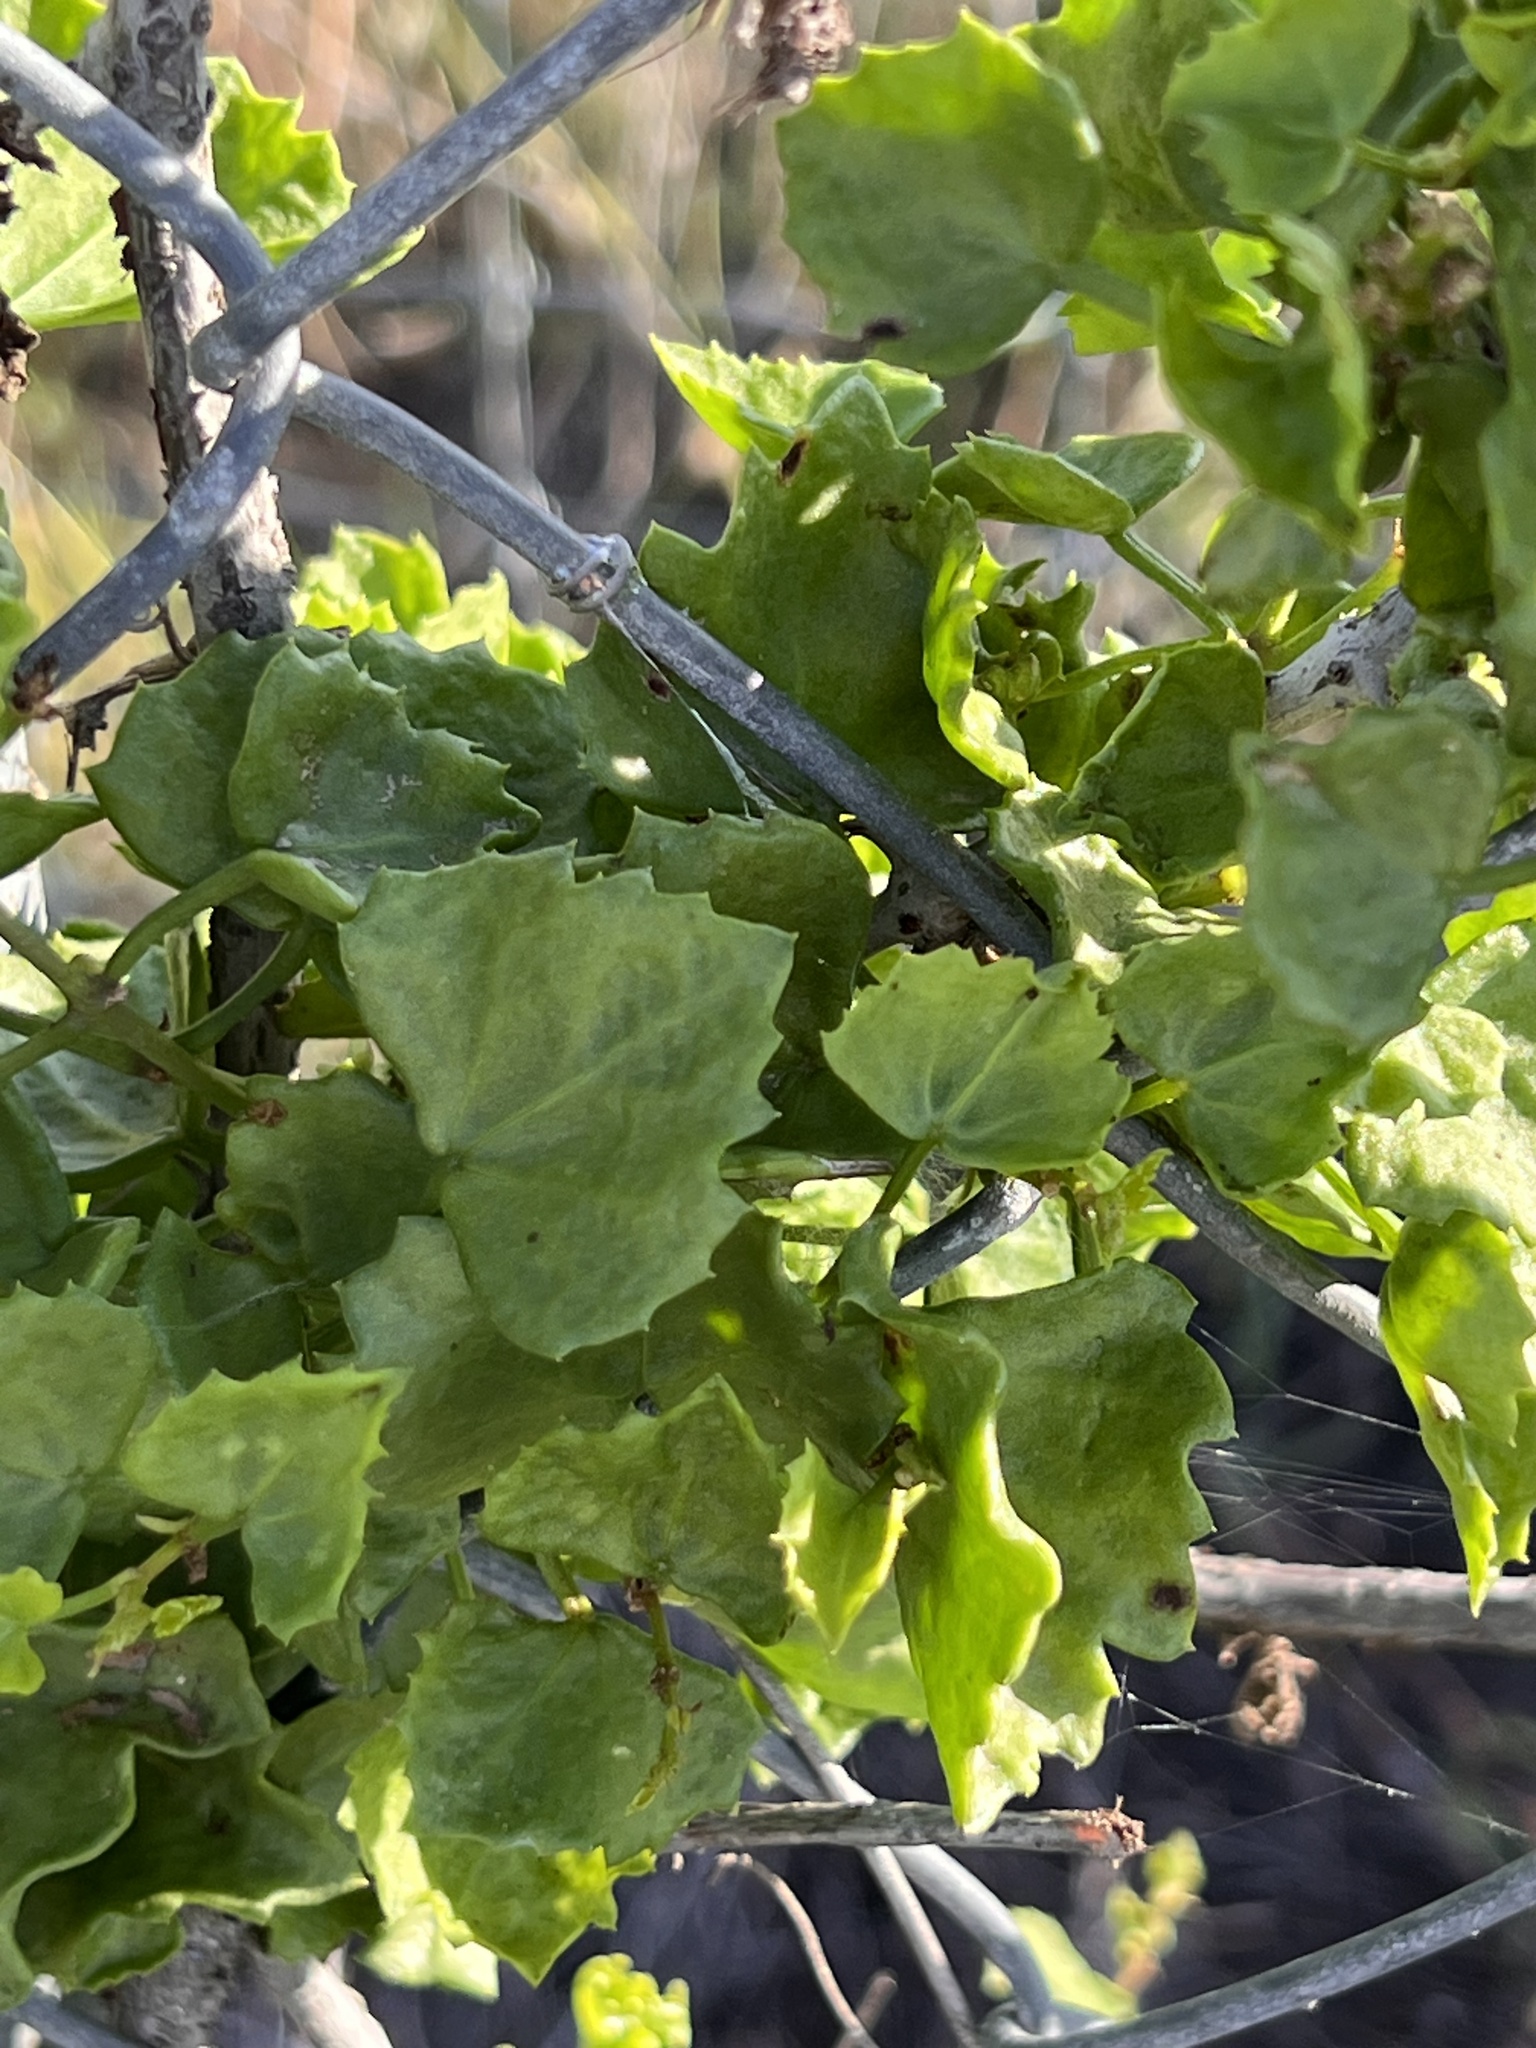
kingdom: Plantae
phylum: Tracheophyta
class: Magnoliopsida
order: Vitales
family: Vitaceae
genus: Cissus
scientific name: Cissus trifoliata
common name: Vine-sorrel
